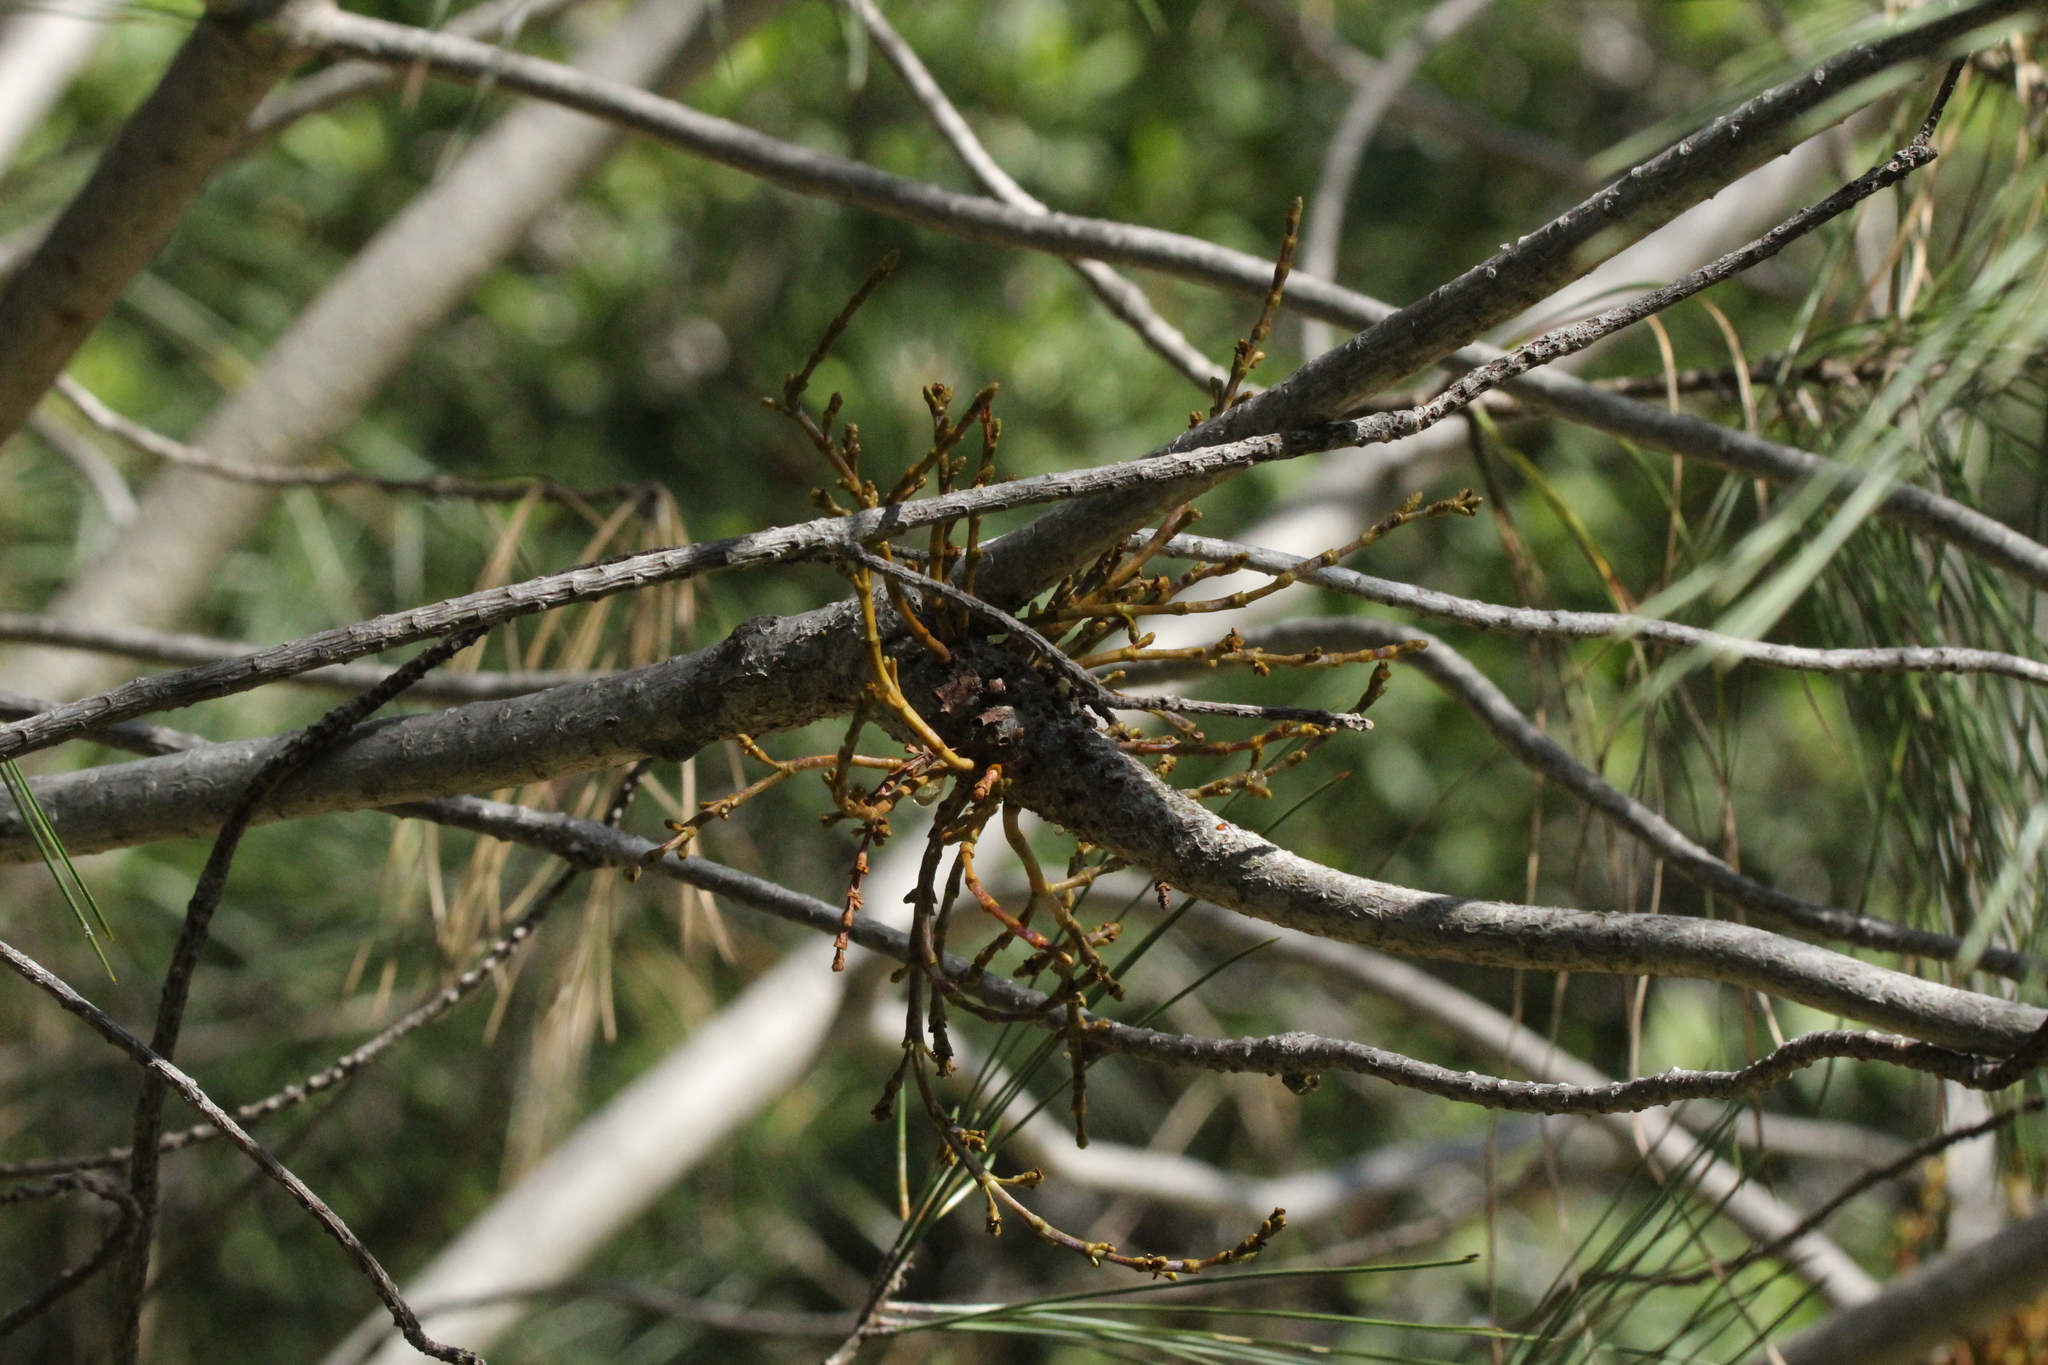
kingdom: Plantae
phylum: Tracheophyta
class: Magnoliopsida
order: Santalales
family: Viscaceae
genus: Arceuthobium
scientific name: Arceuthobium campylopodum
